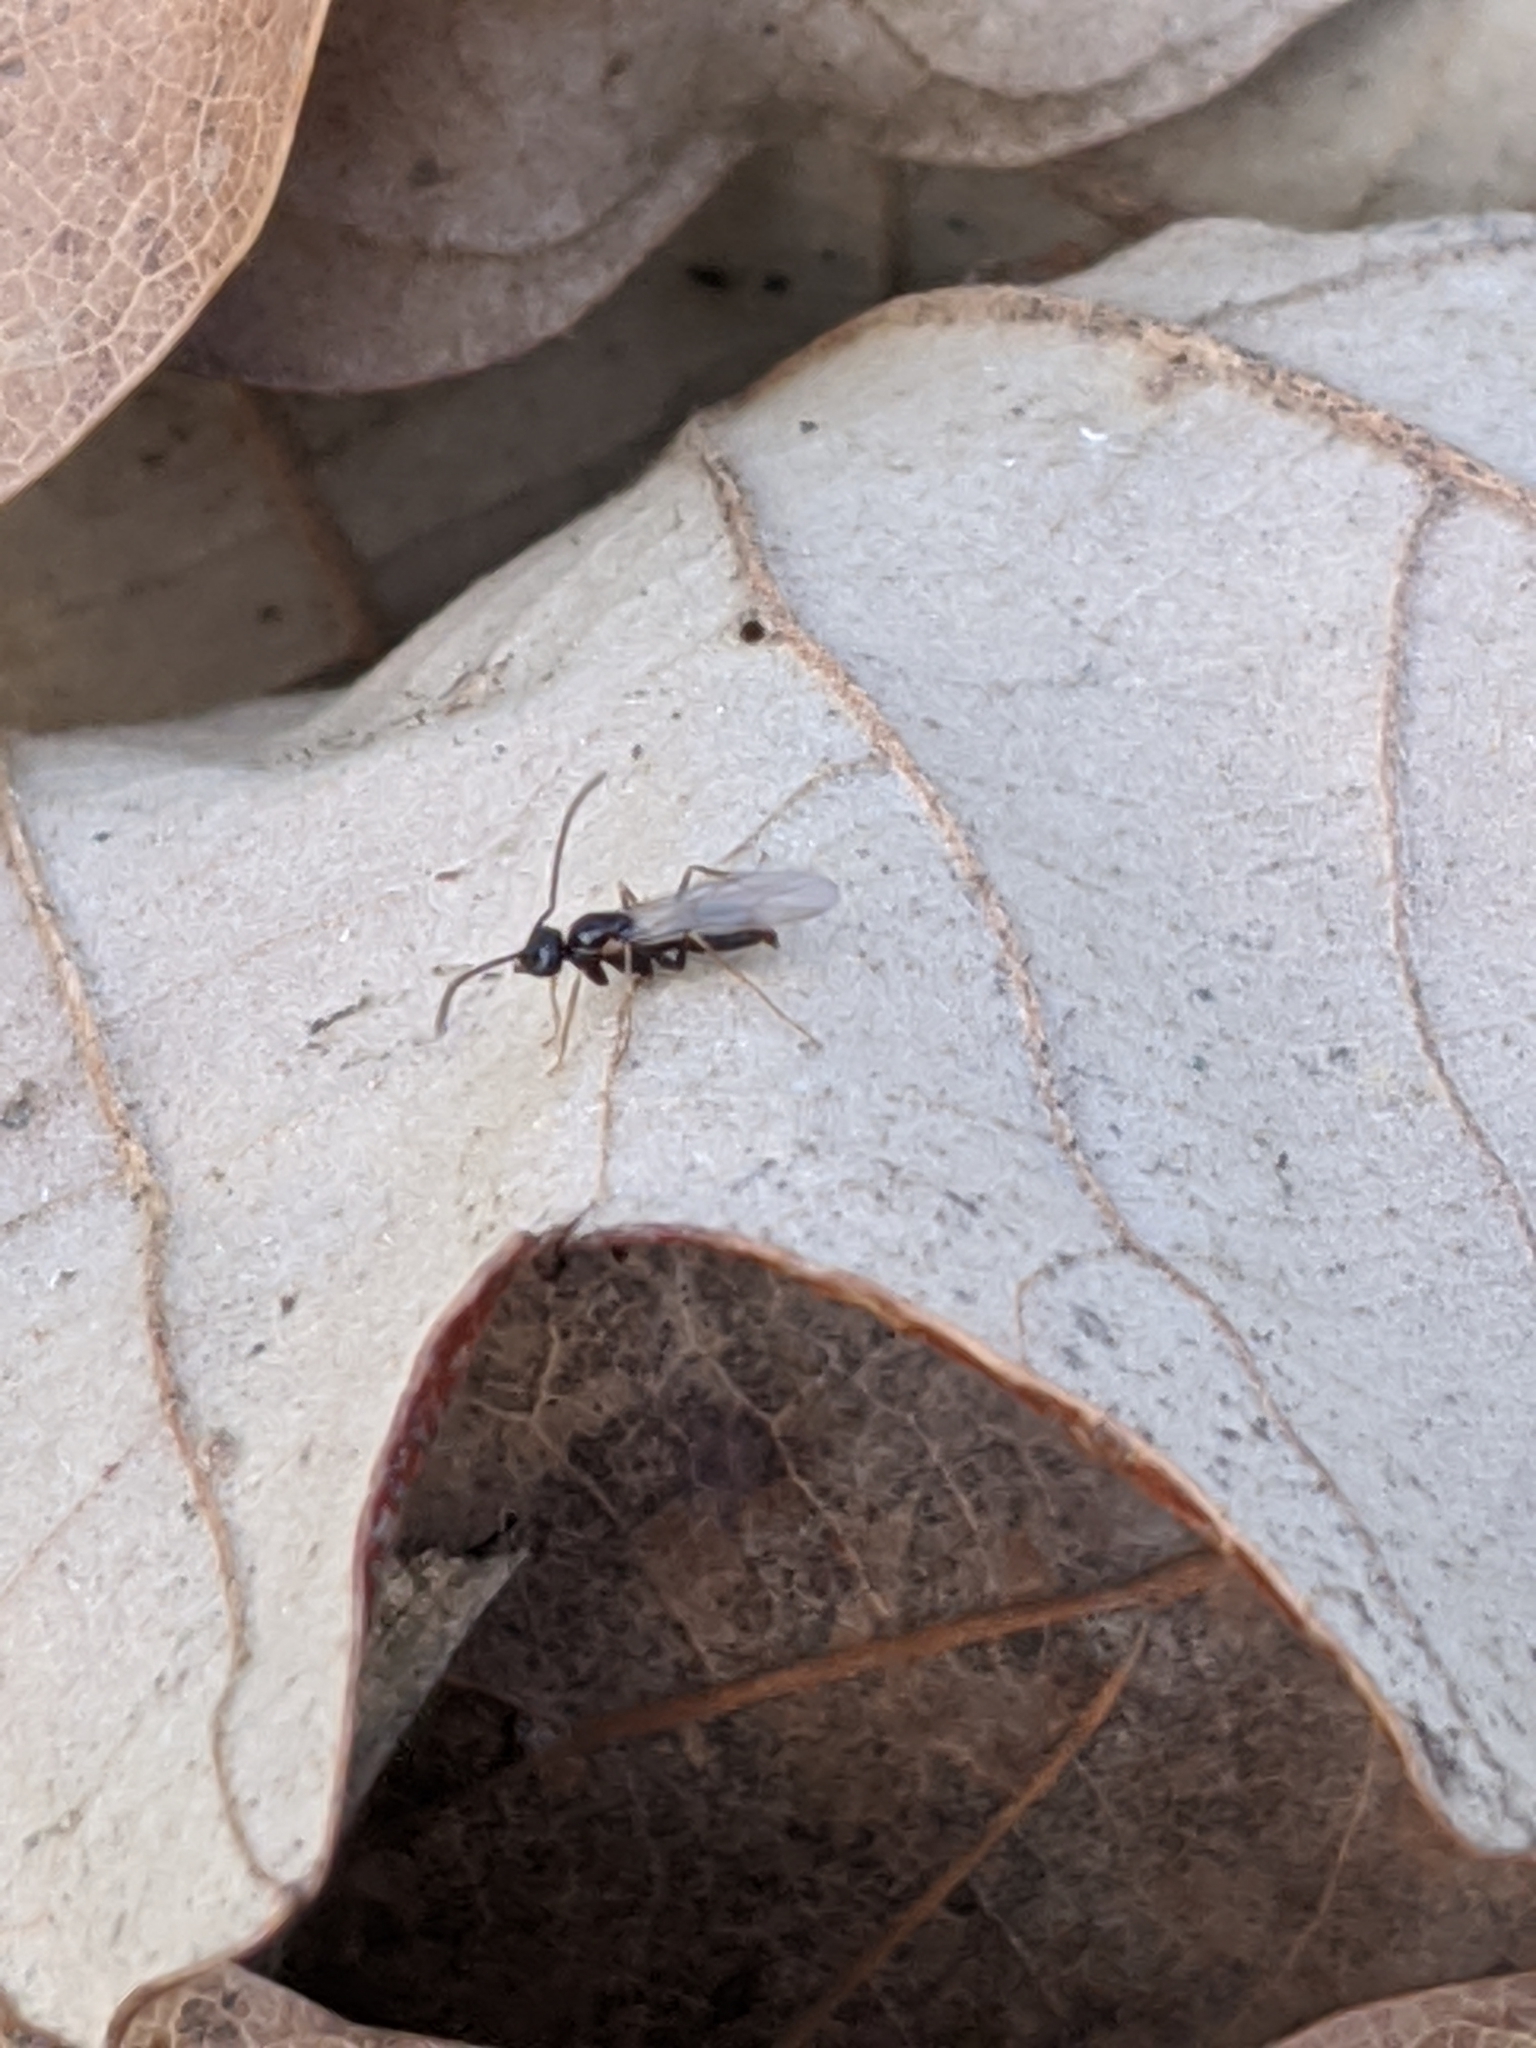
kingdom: Animalia
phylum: Arthropoda
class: Insecta
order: Hymenoptera
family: Formicidae
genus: Prenolepis
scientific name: Prenolepis imparis
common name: Small honey ant
